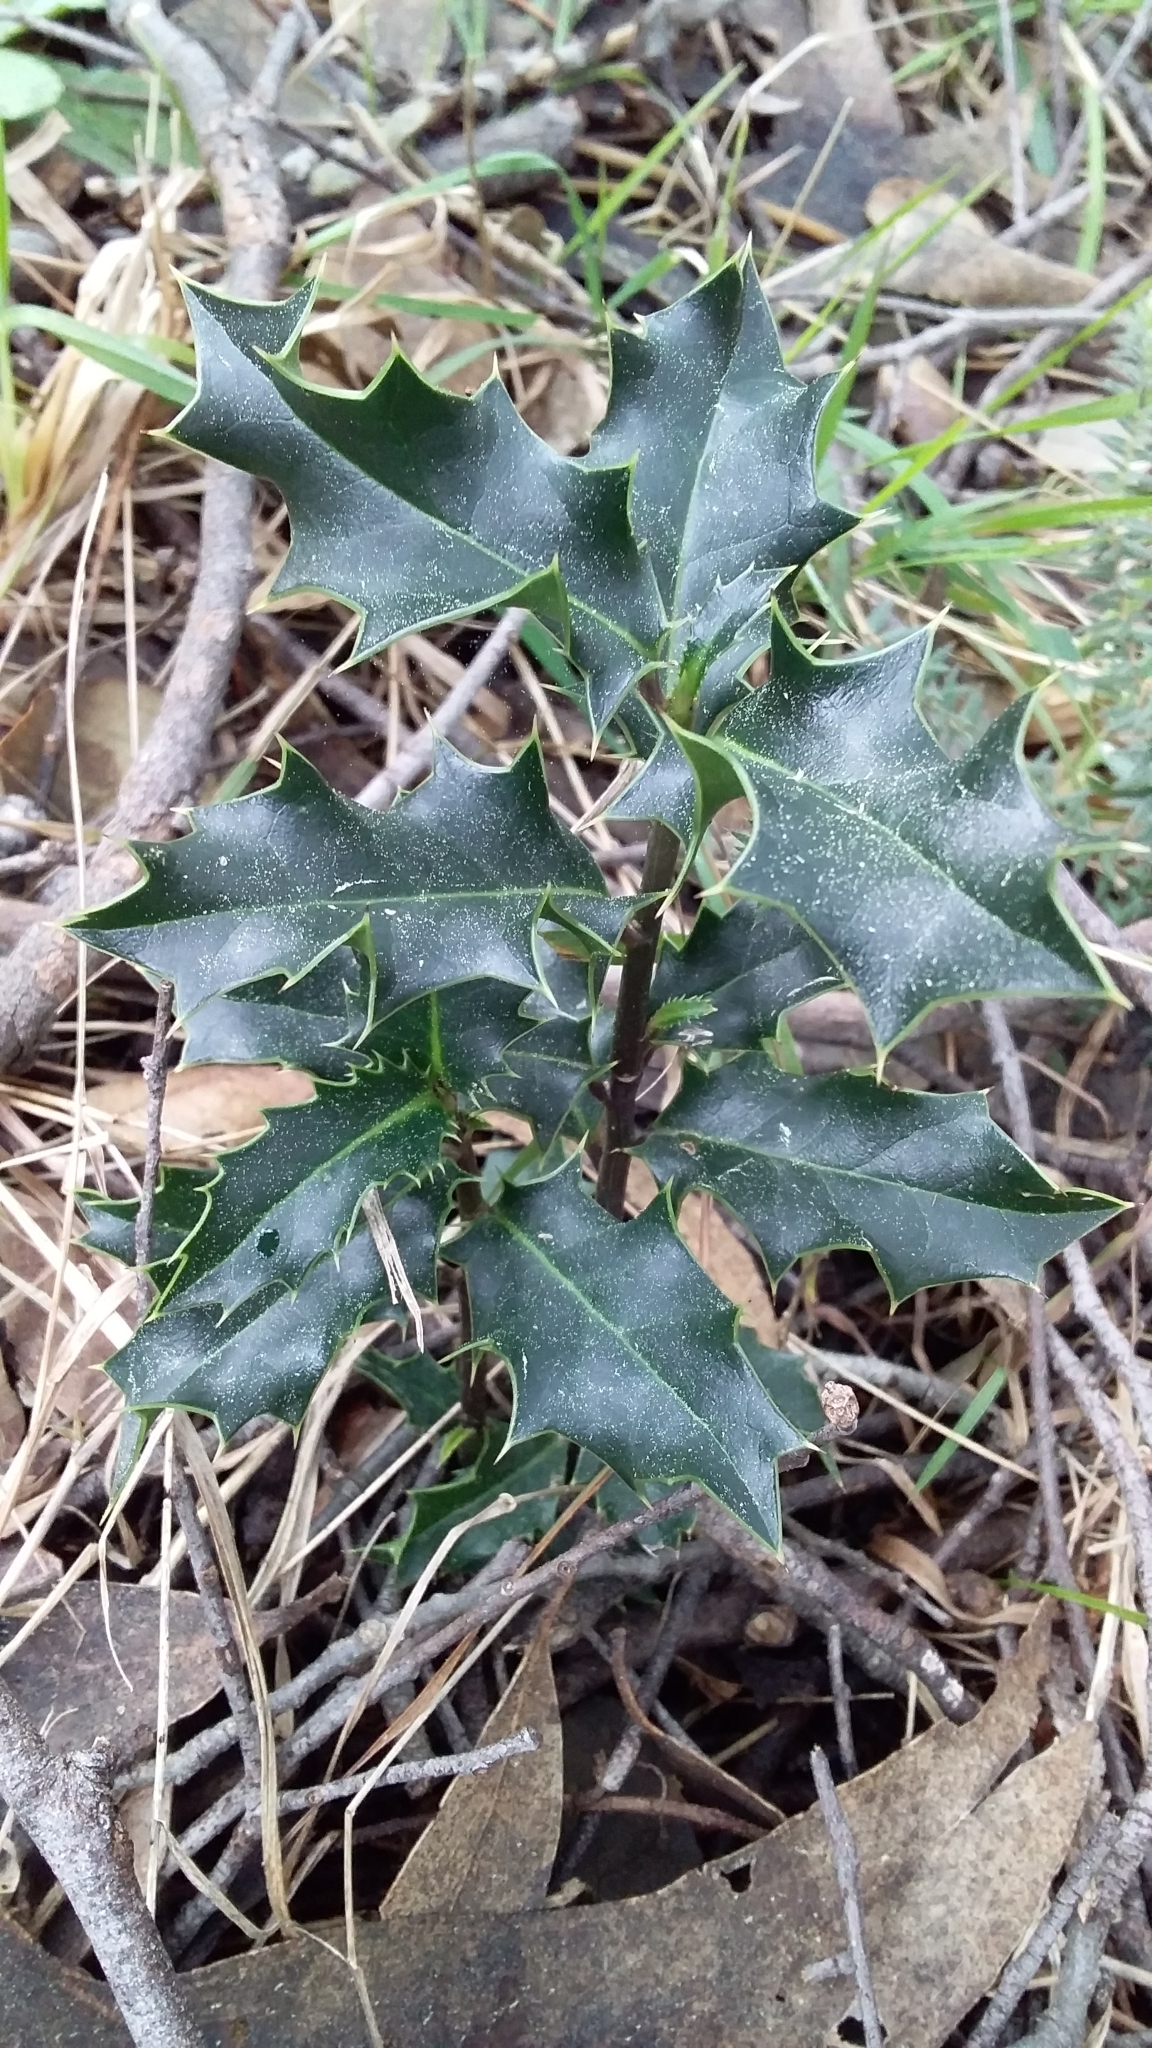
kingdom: Plantae
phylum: Tracheophyta
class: Magnoliopsida
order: Aquifoliales
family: Aquifoliaceae
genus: Ilex
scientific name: Ilex aquifolium
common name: English holly
